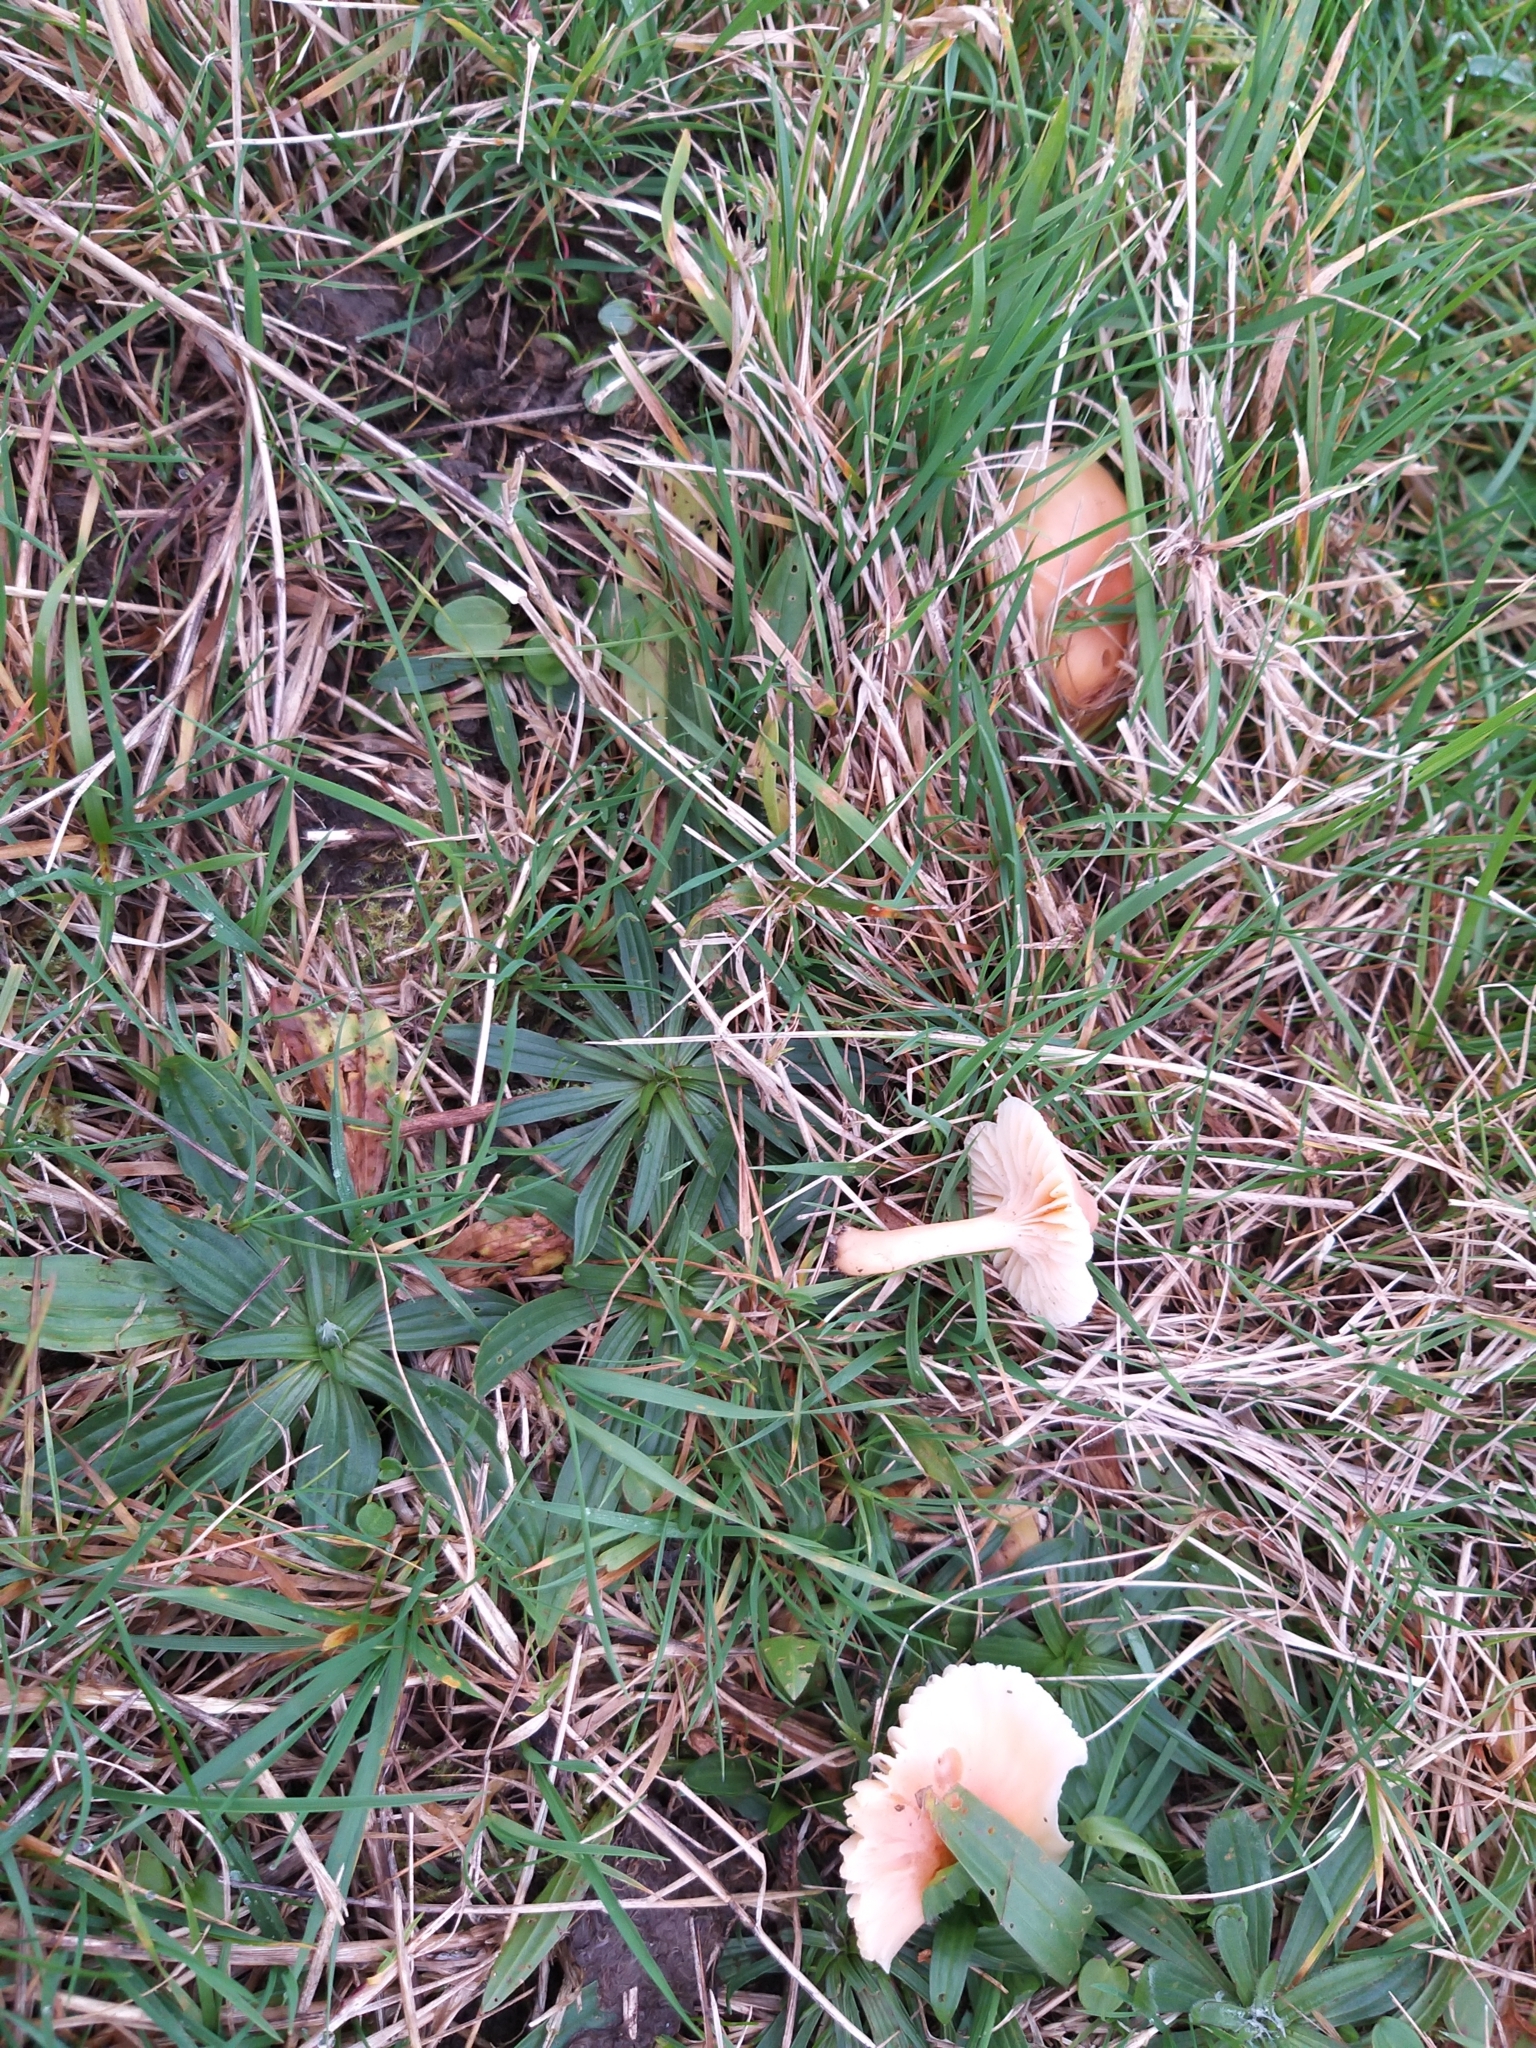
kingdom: Fungi
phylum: Basidiomycota
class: Agaricomycetes
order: Agaricales
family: Hygrophoraceae
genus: Cuphophyllus
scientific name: Cuphophyllus pratensis
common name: Meadow waxcap
